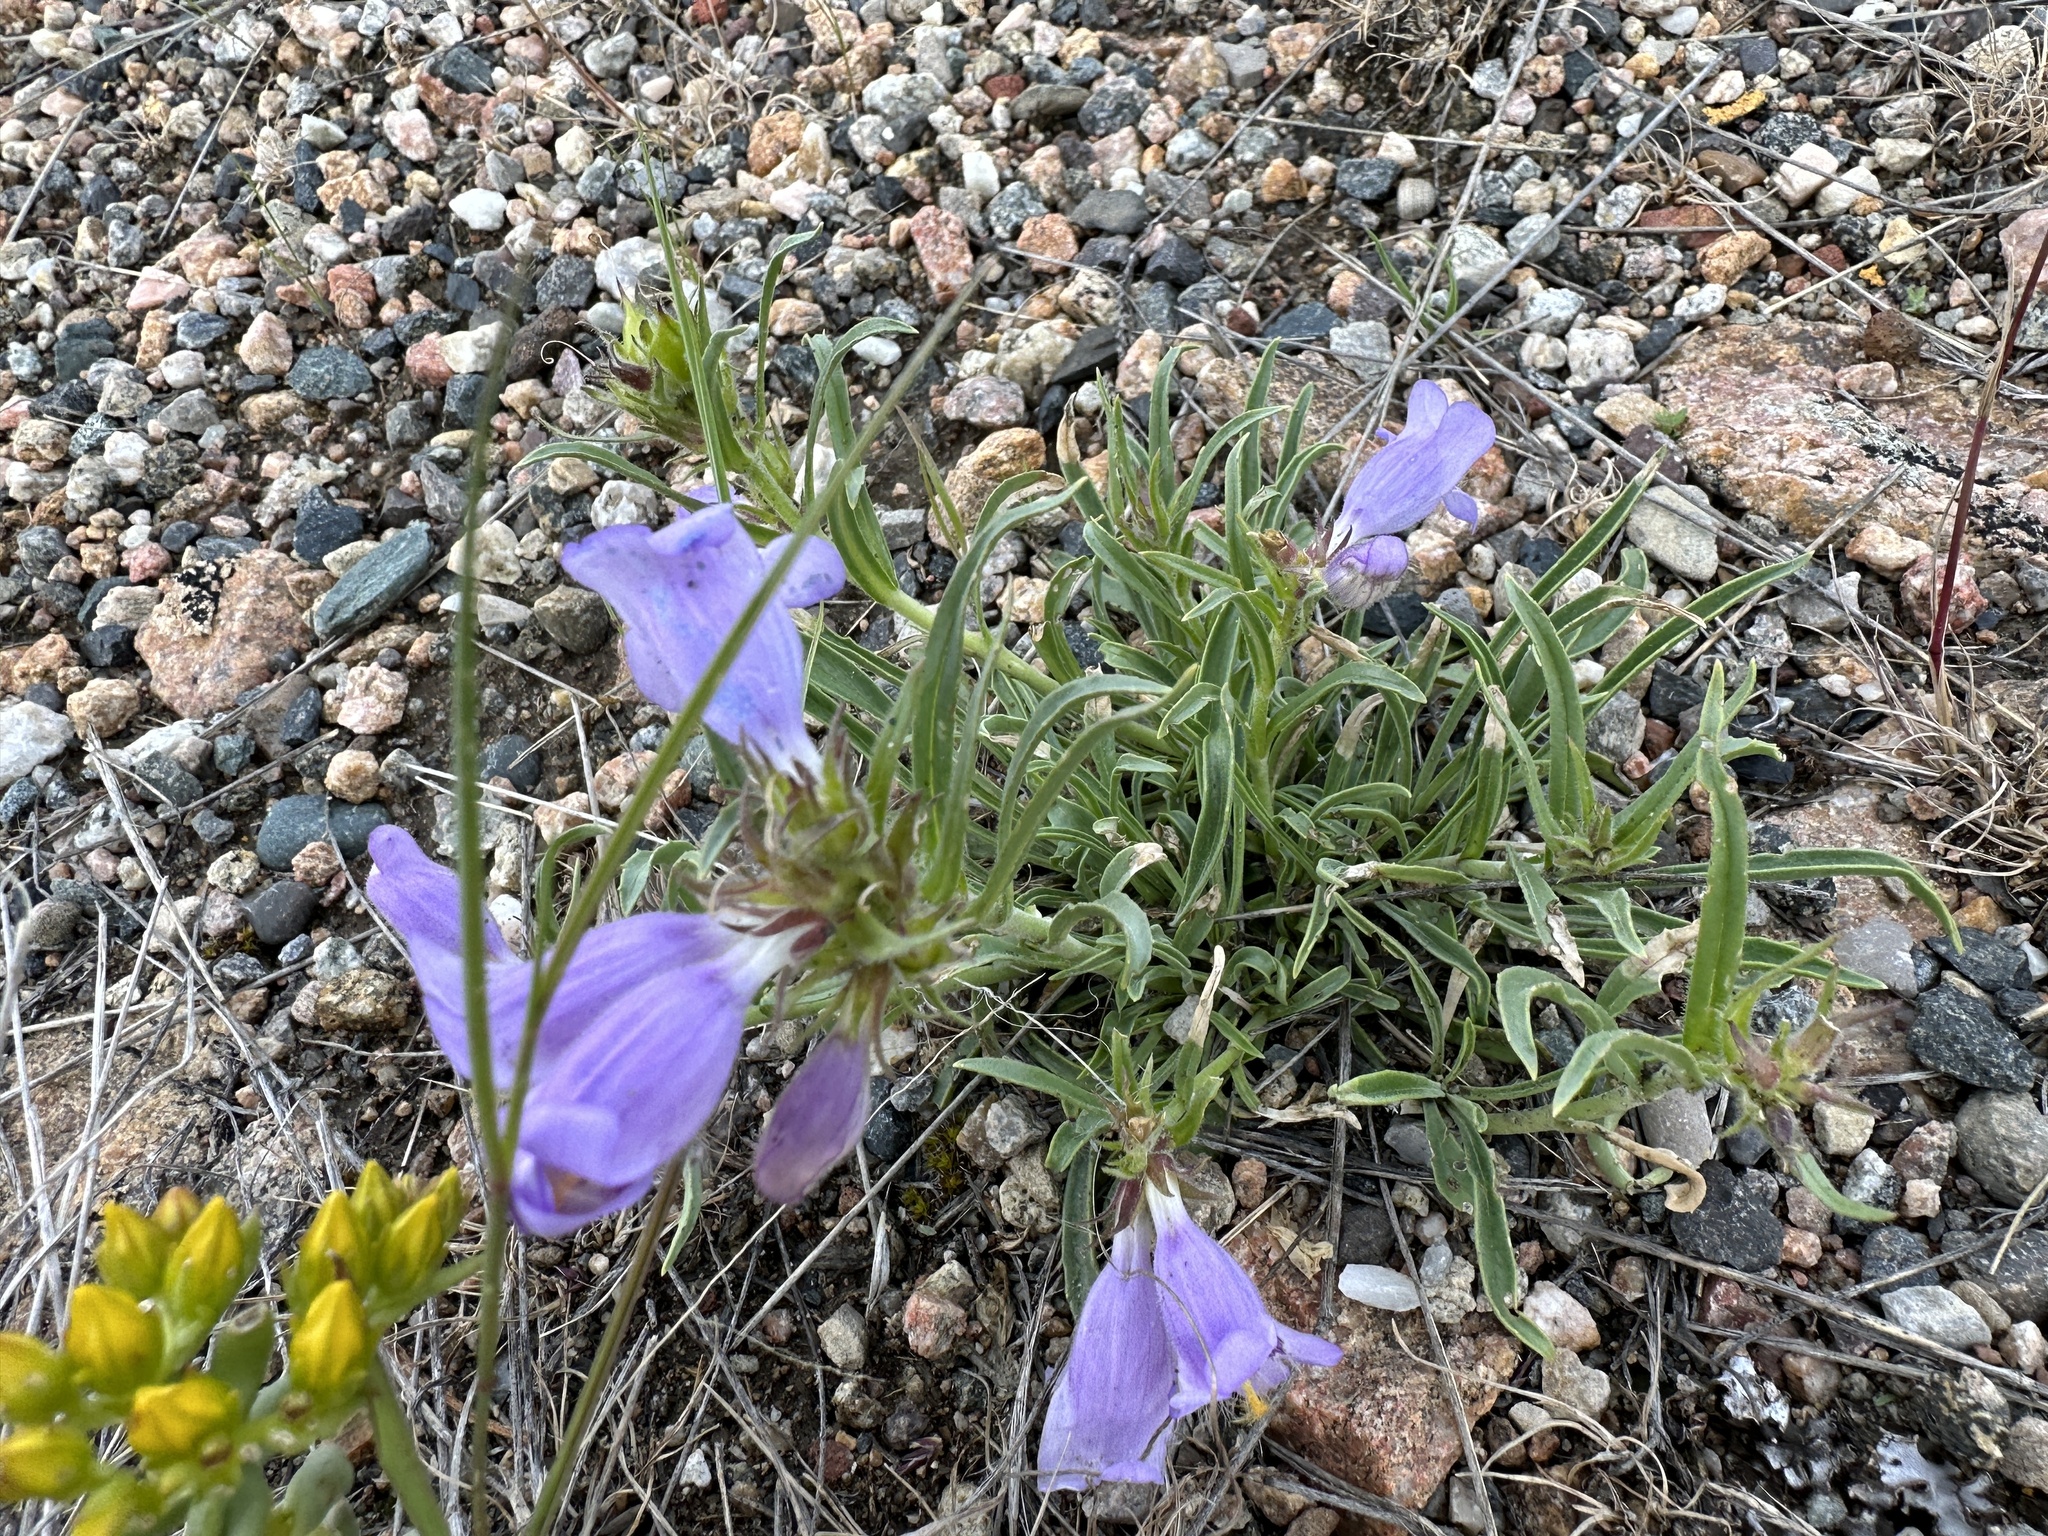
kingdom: Plantae
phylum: Tracheophyta
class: Magnoliopsida
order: Lamiales
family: Plantaginaceae
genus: Penstemon
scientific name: Penstemon eriantherus
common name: Crested beardtongue
